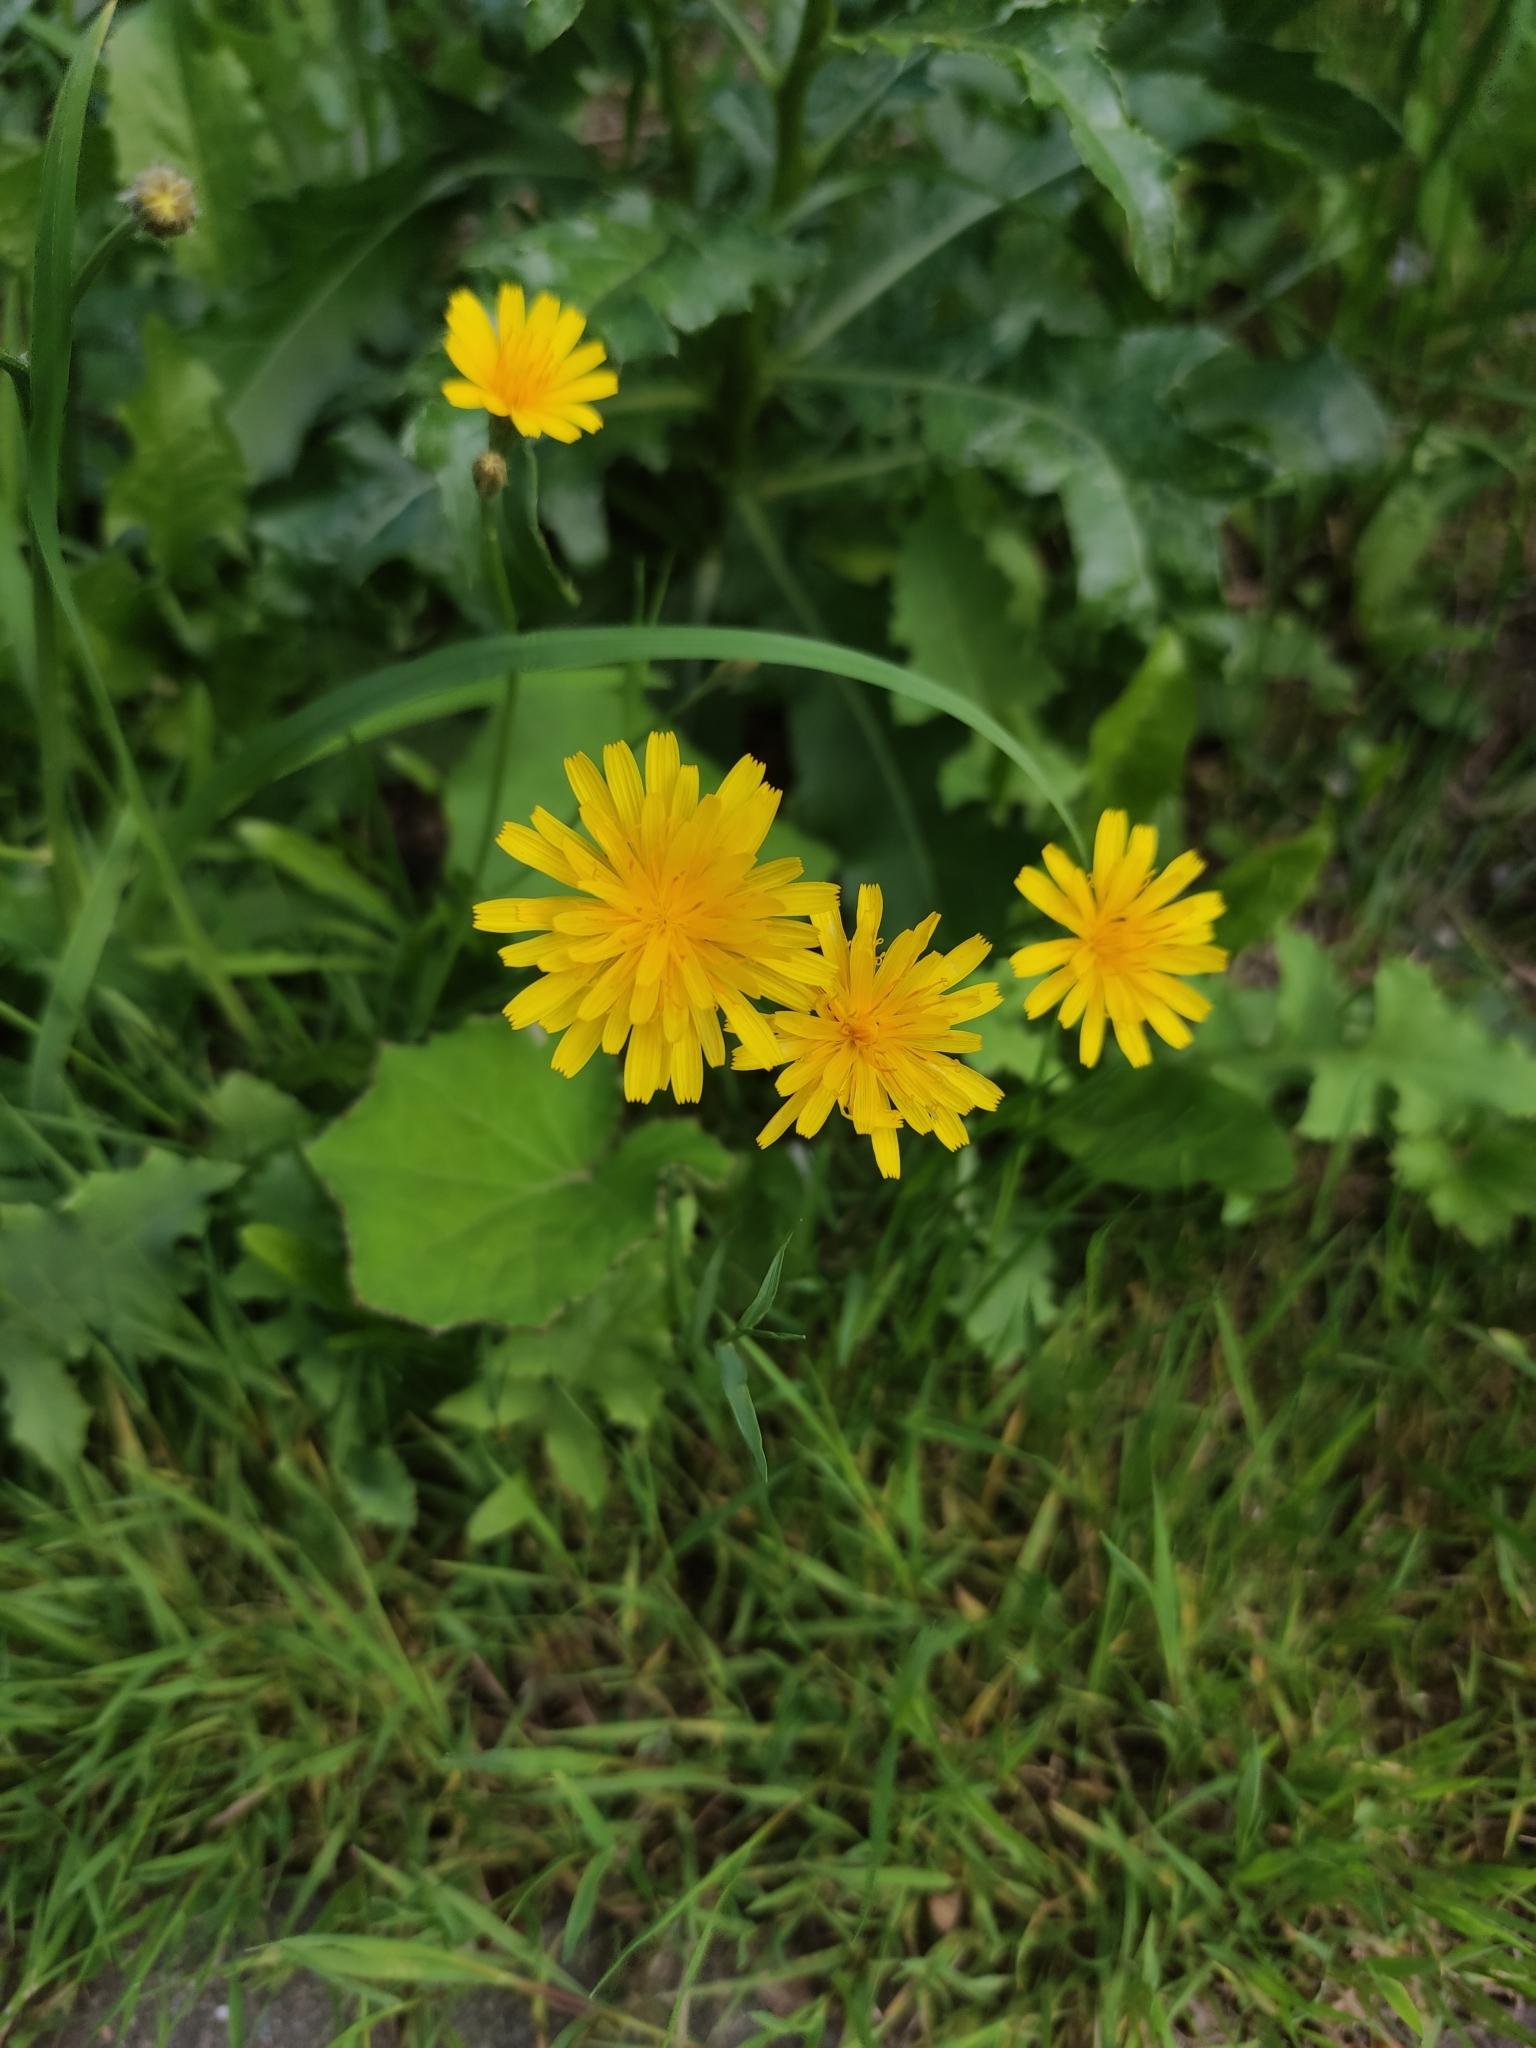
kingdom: Plantae
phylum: Tracheophyta
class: Magnoliopsida
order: Asterales
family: Asteraceae
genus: Scorzoneroides
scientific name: Scorzoneroides autumnalis
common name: Autumn hawkbit
